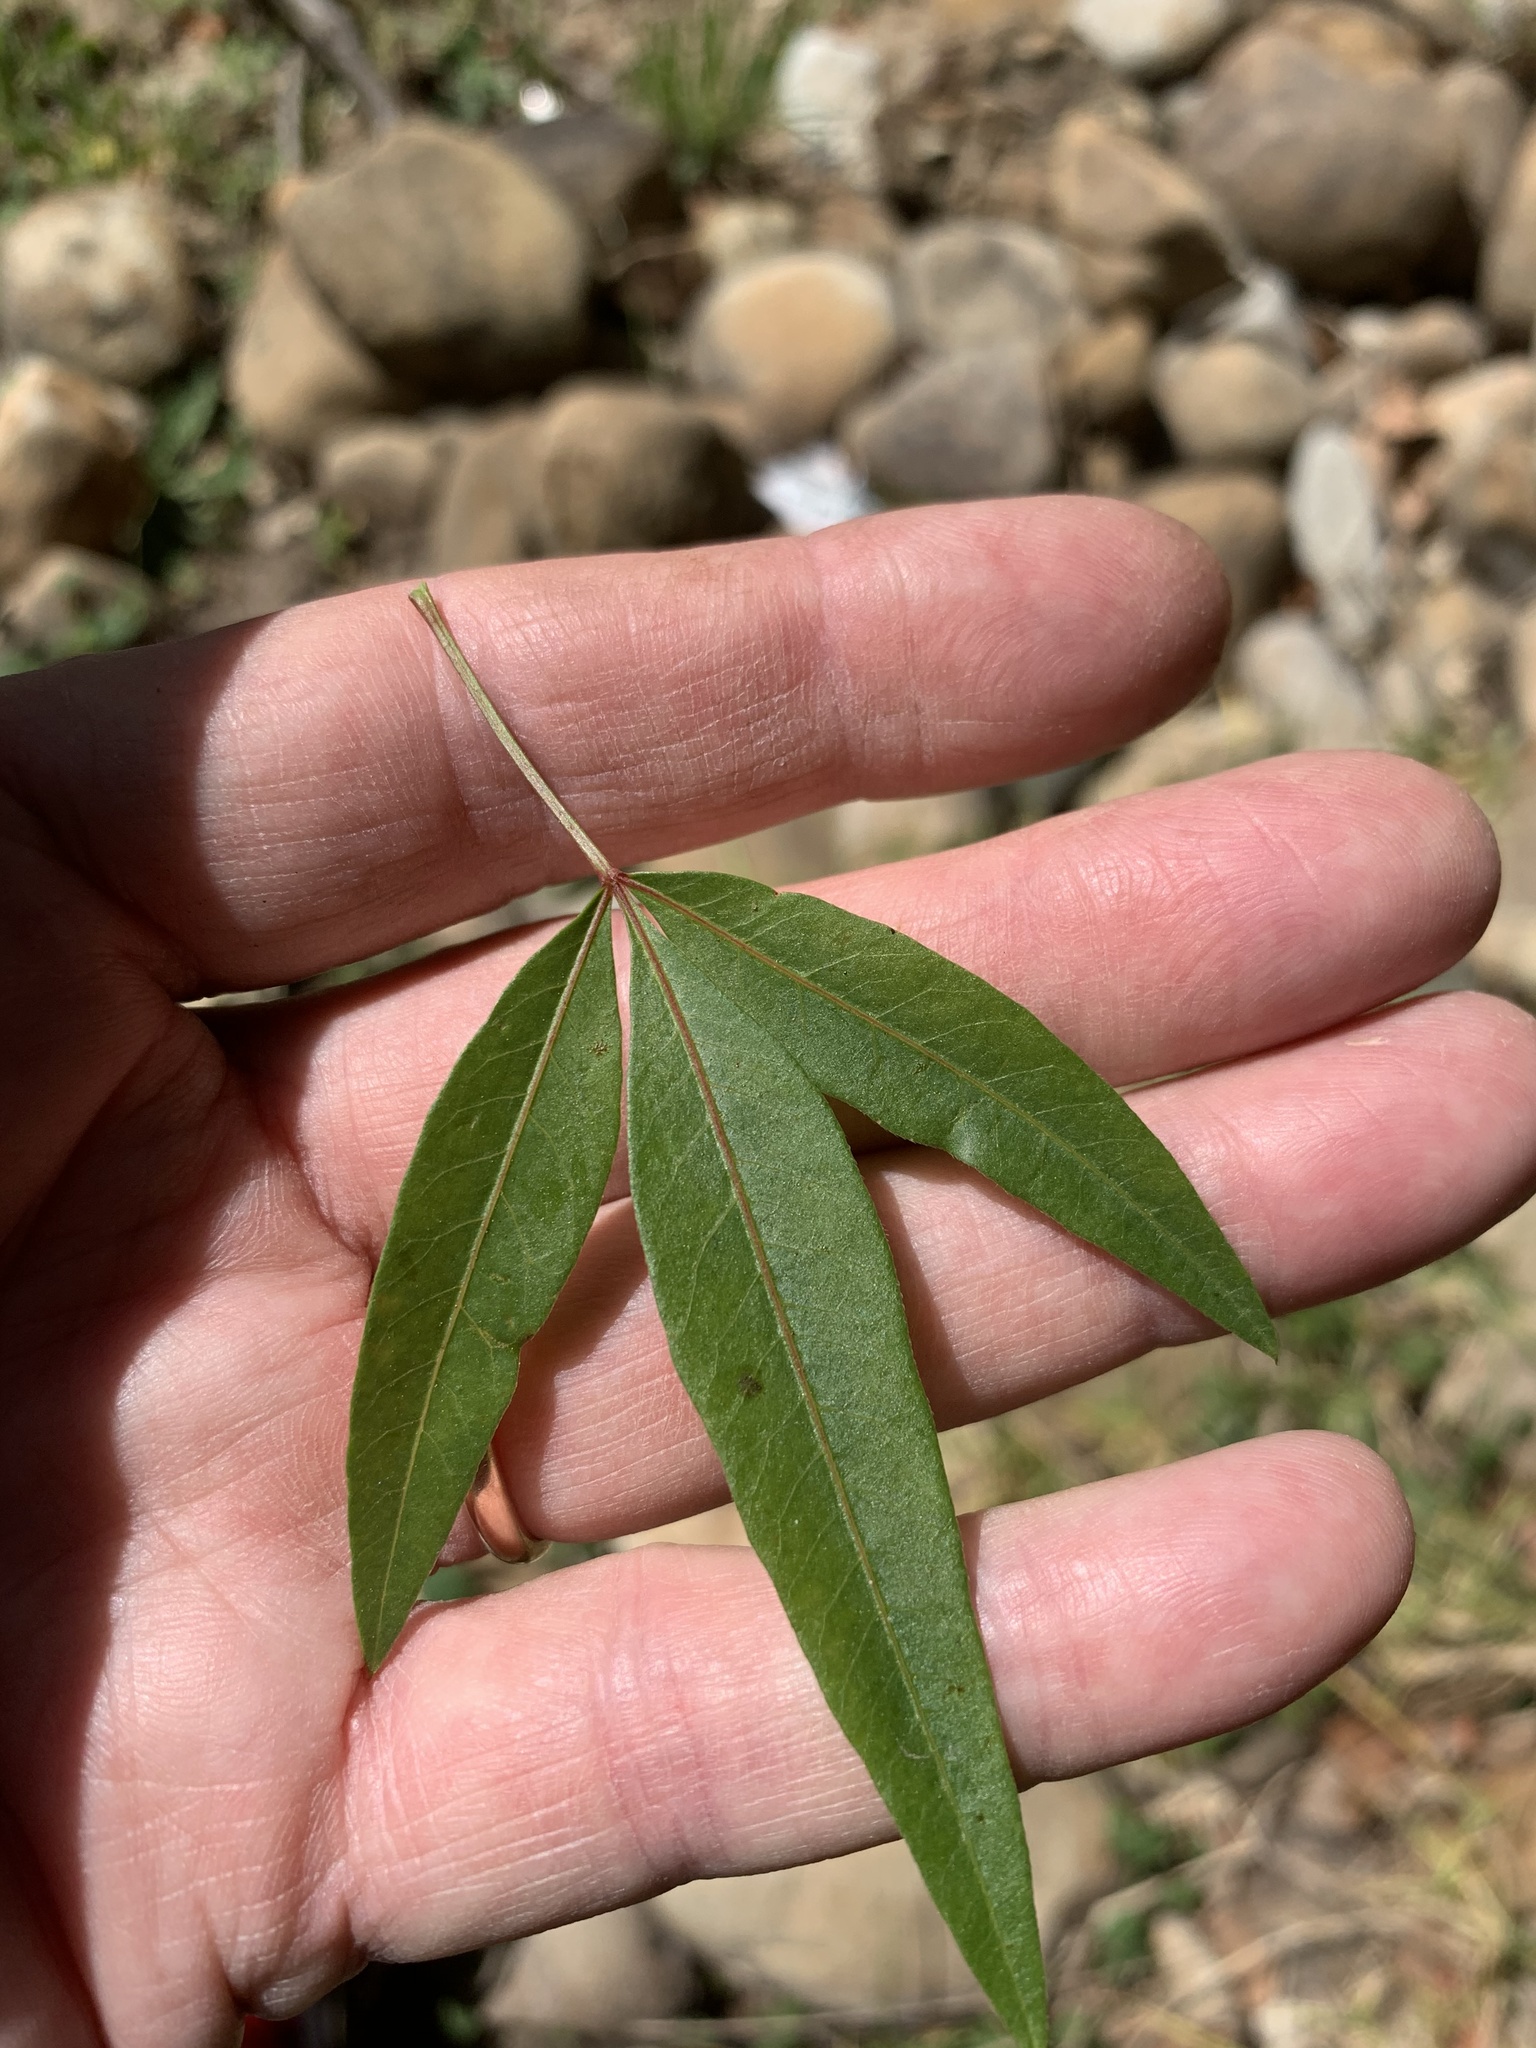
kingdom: Plantae
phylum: Tracheophyta
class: Magnoliopsida
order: Sapindales
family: Anacardiaceae
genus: Searsia
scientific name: Searsia pendulina
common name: White karee
